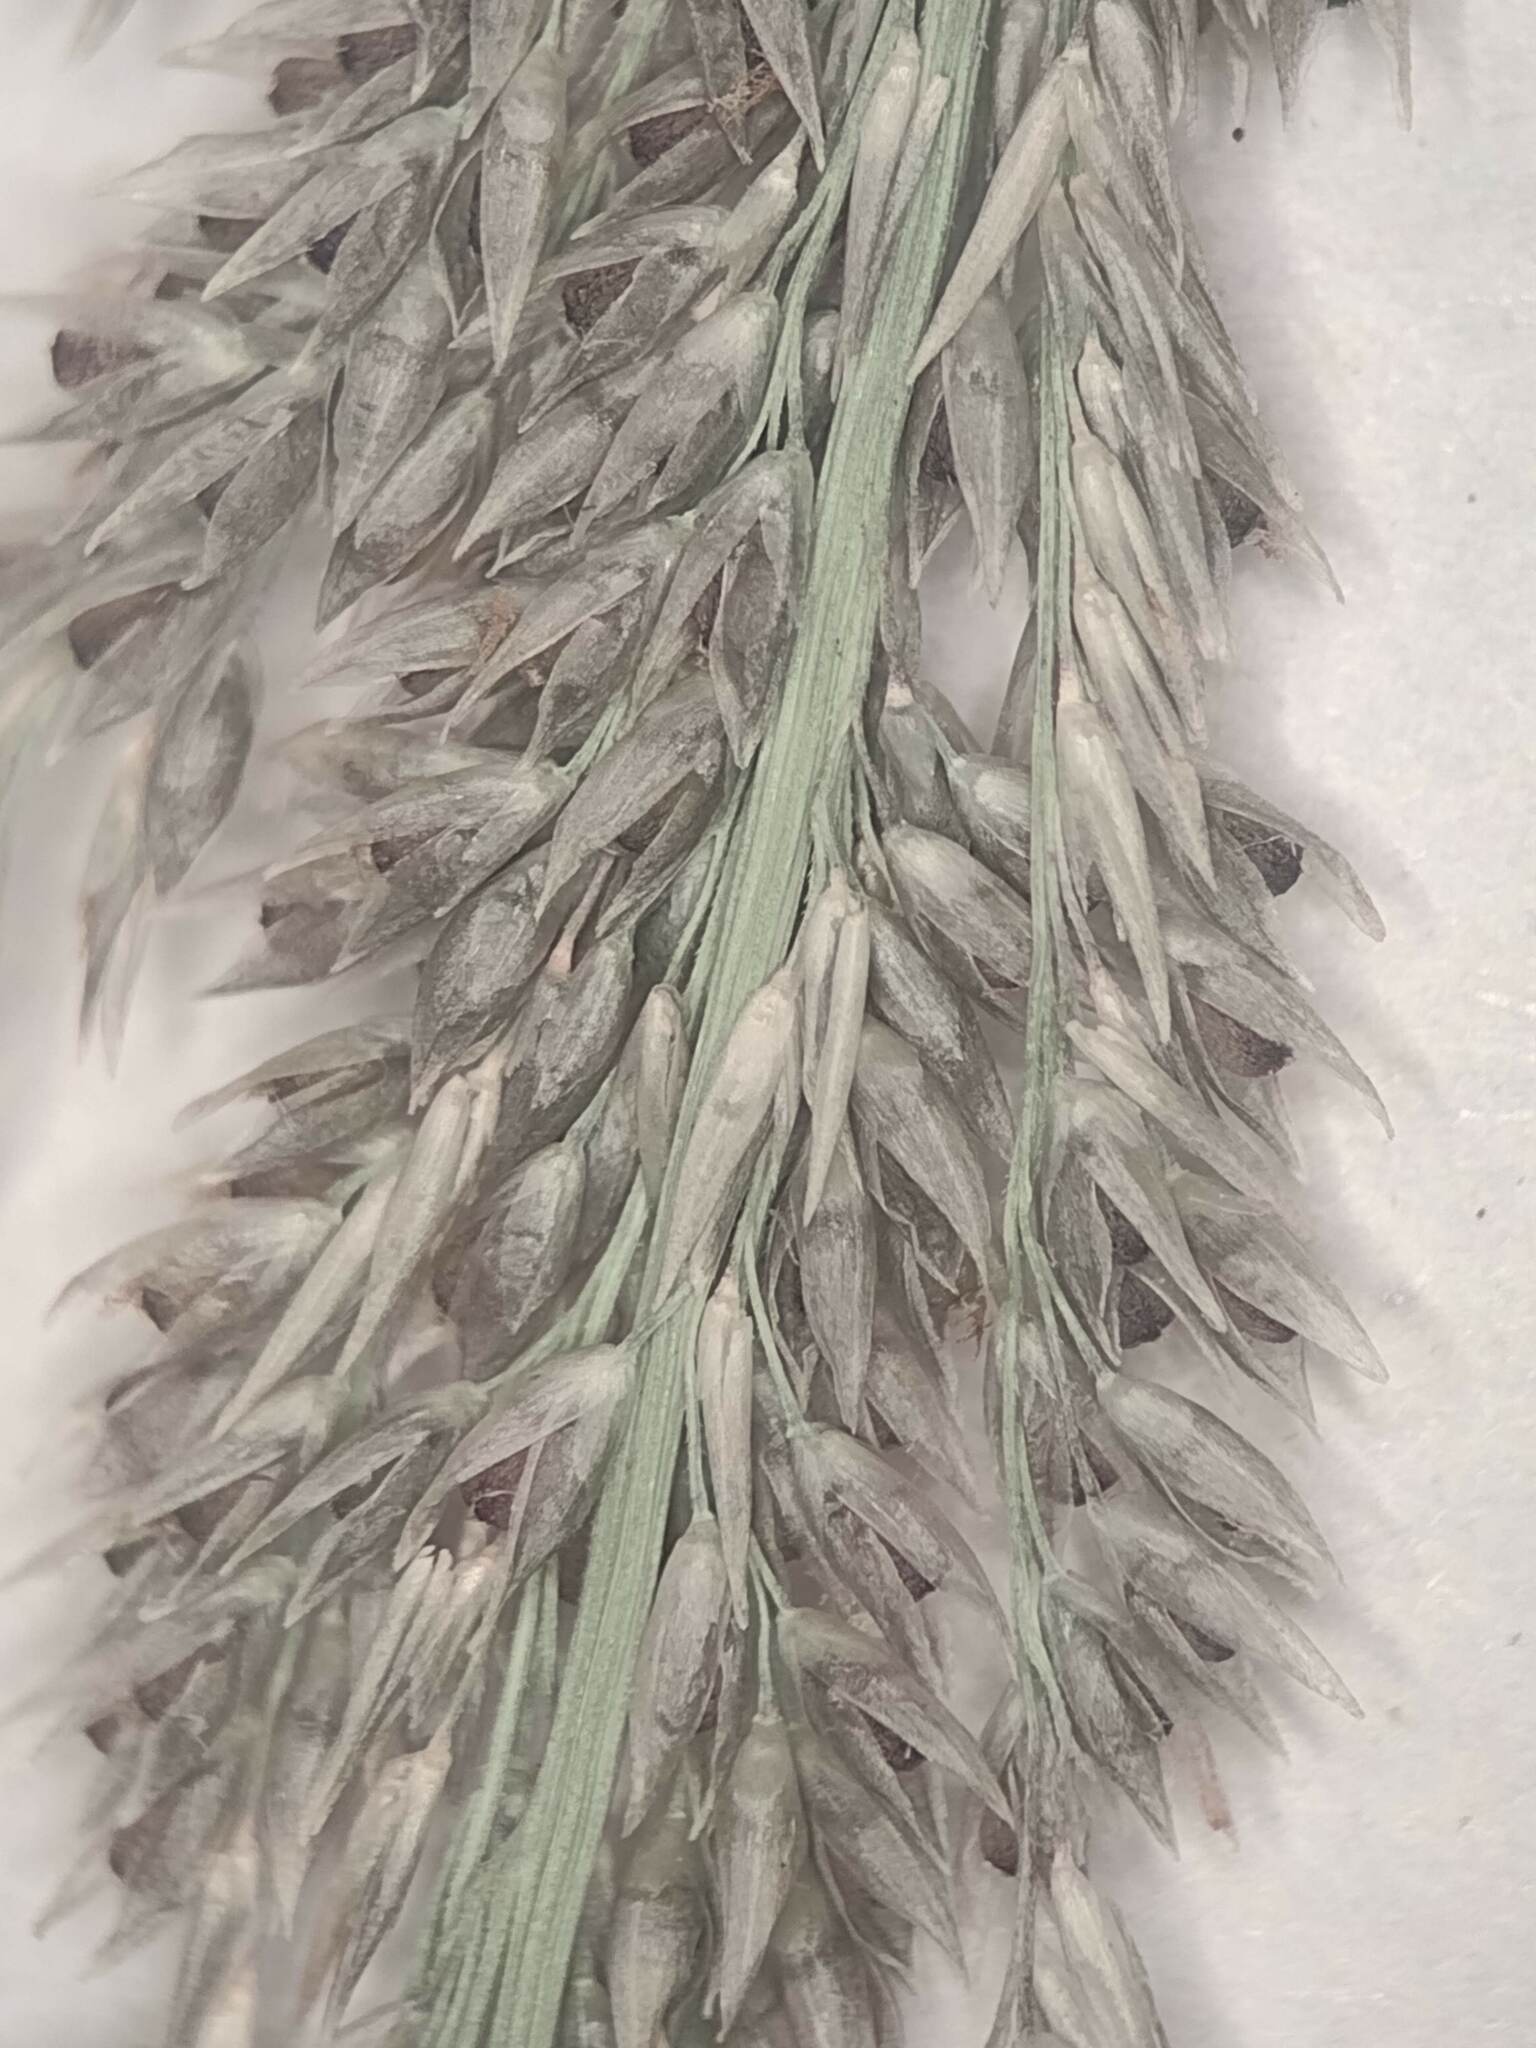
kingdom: Plantae
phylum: Tracheophyta
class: Liliopsida
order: Poales
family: Poaceae
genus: Sporobolus
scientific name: Sporobolus africanus
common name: African dropseed
